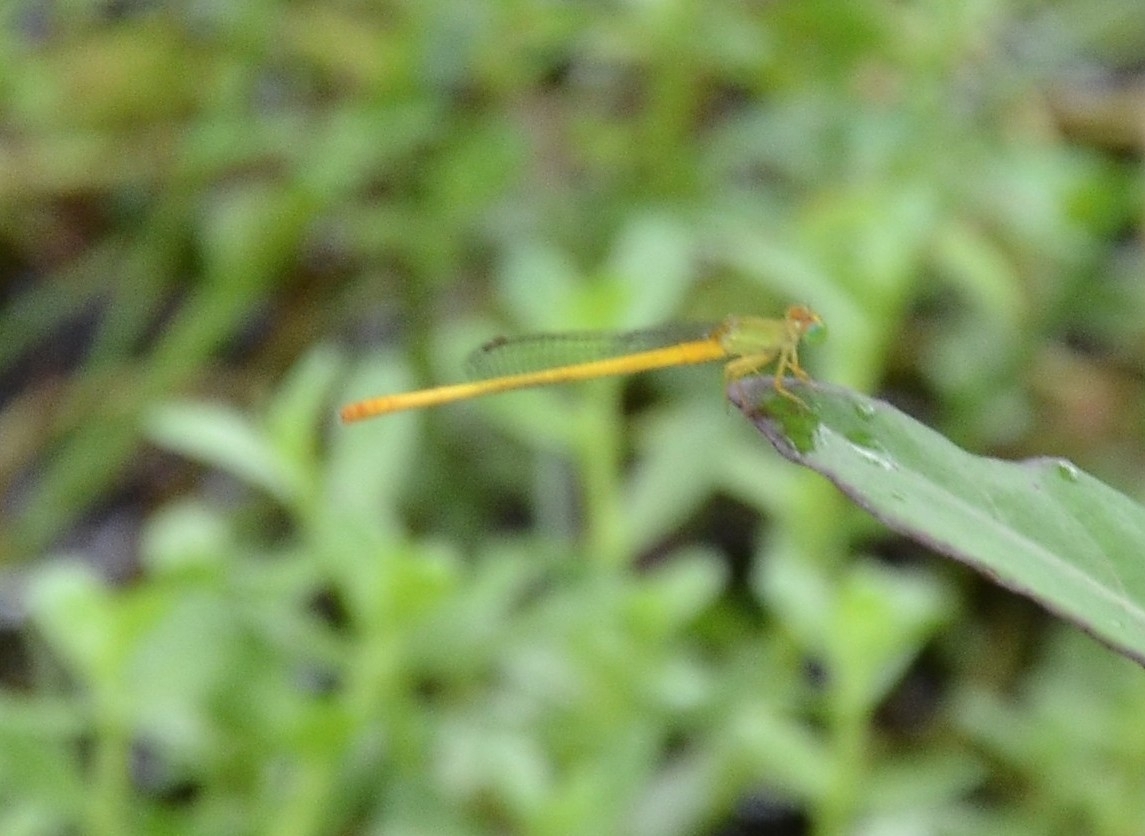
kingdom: Animalia
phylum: Arthropoda
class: Insecta
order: Odonata
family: Coenagrionidae
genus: Ceriagrion
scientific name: Ceriagrion coromandelianum
